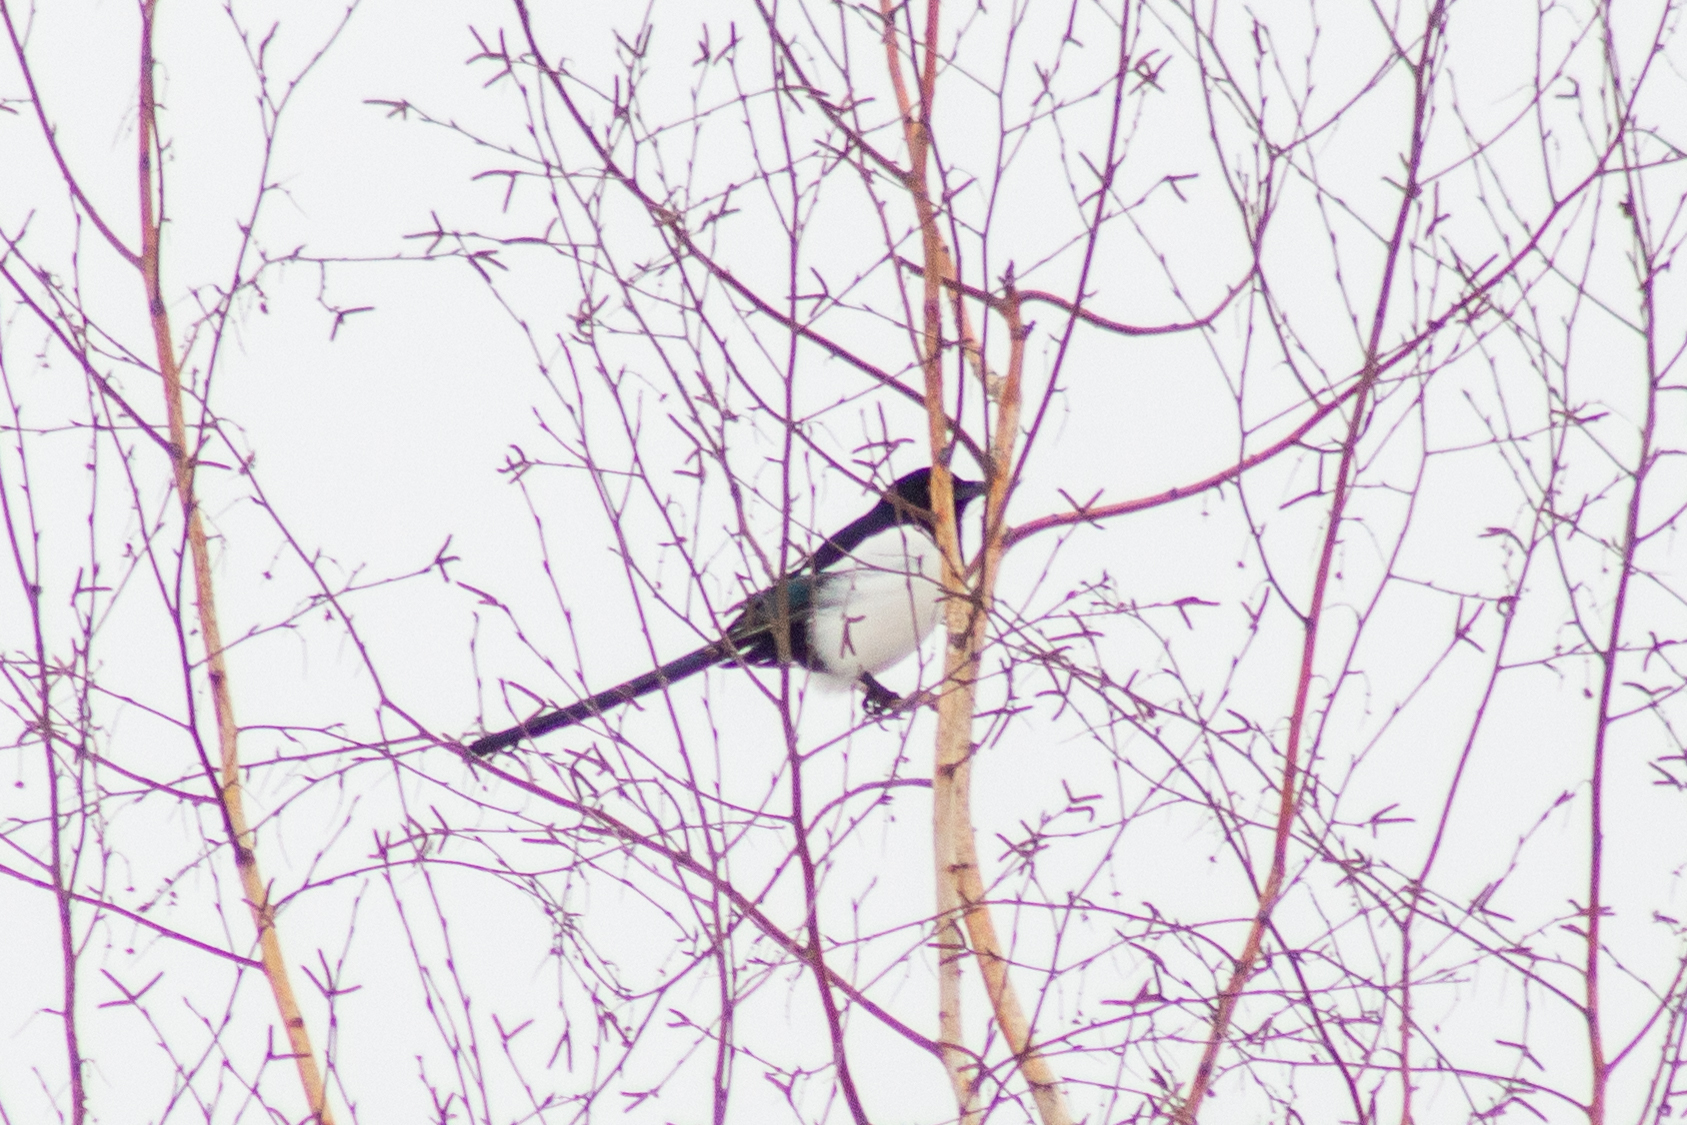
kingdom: Animalia
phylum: Chordata
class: Aves
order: Passeriformes
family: Corvidae
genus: Pica
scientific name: Pica pica
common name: Eurasian magpie
